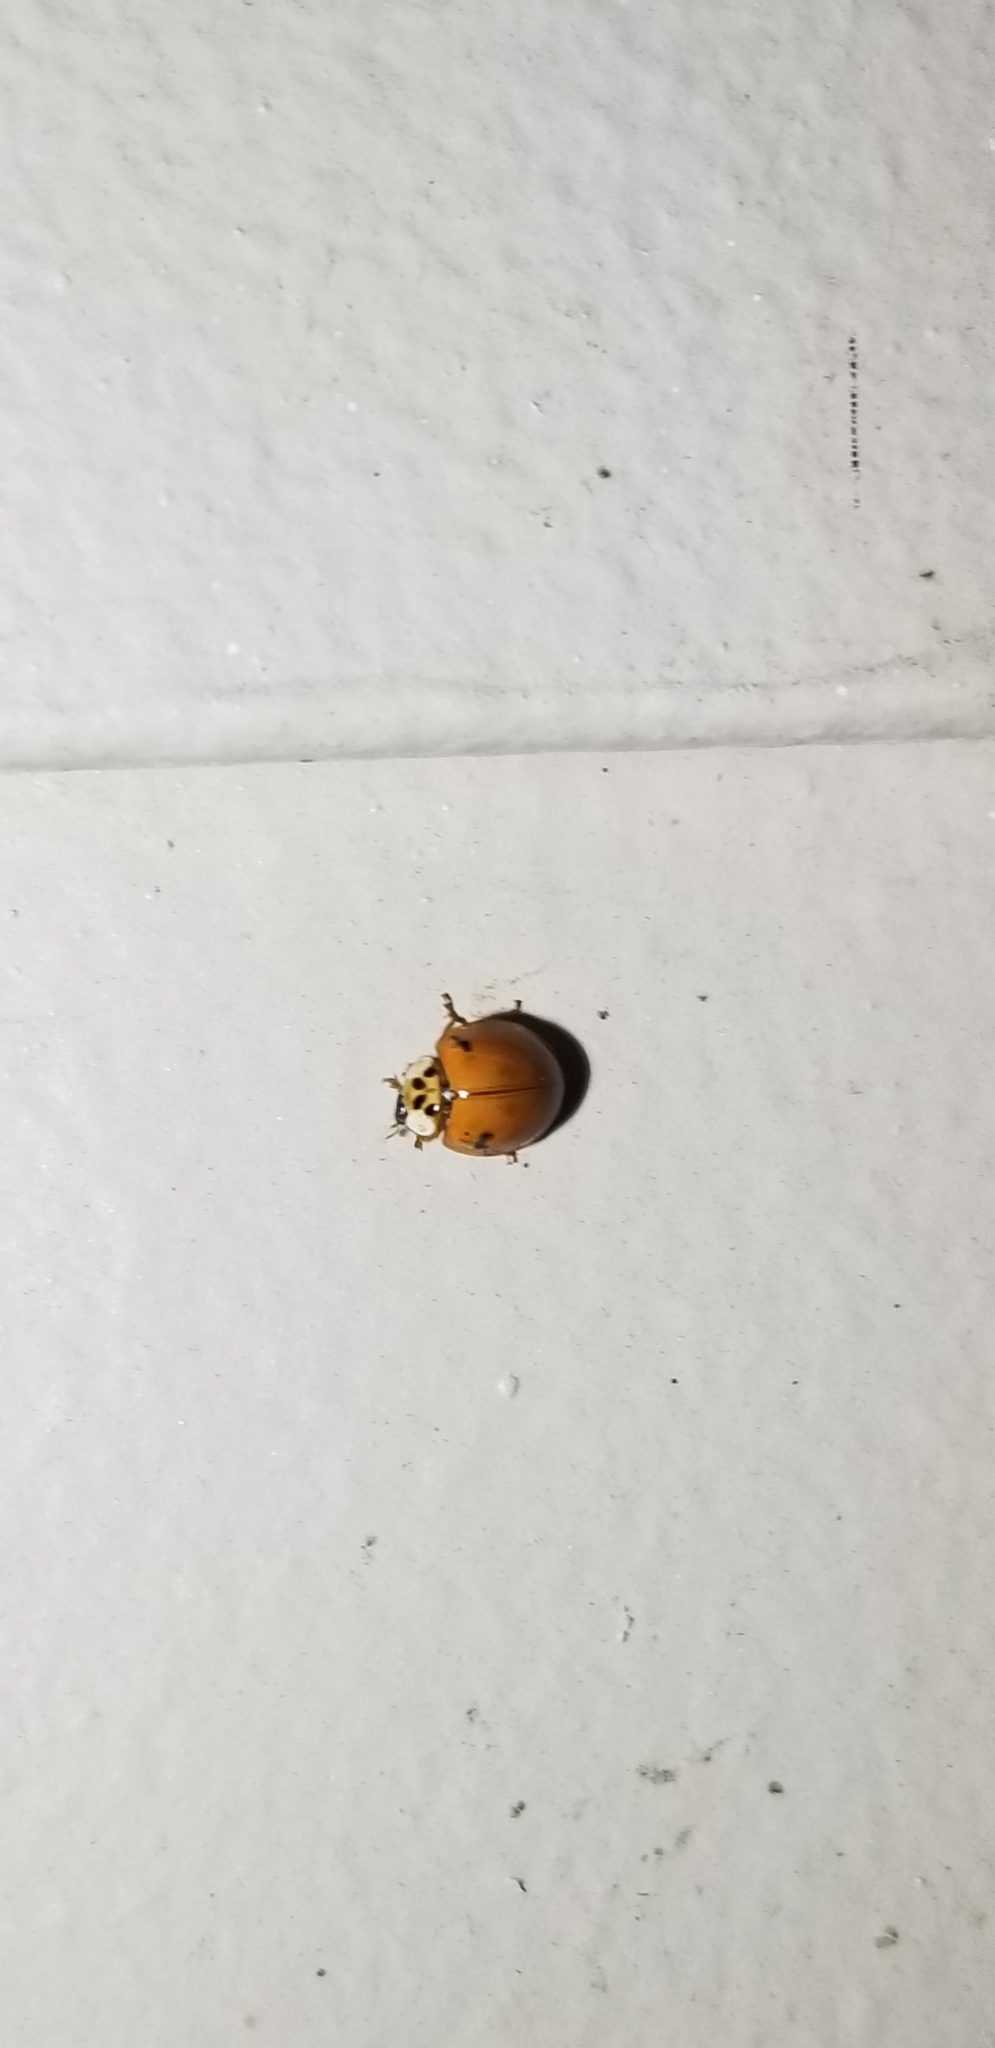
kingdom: Animalia
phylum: Arthropoda
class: Insecta
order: Coleoptera
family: Coccinellidae
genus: Harmonia
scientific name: Harmonia axyridis
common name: Harlequin ladybird
